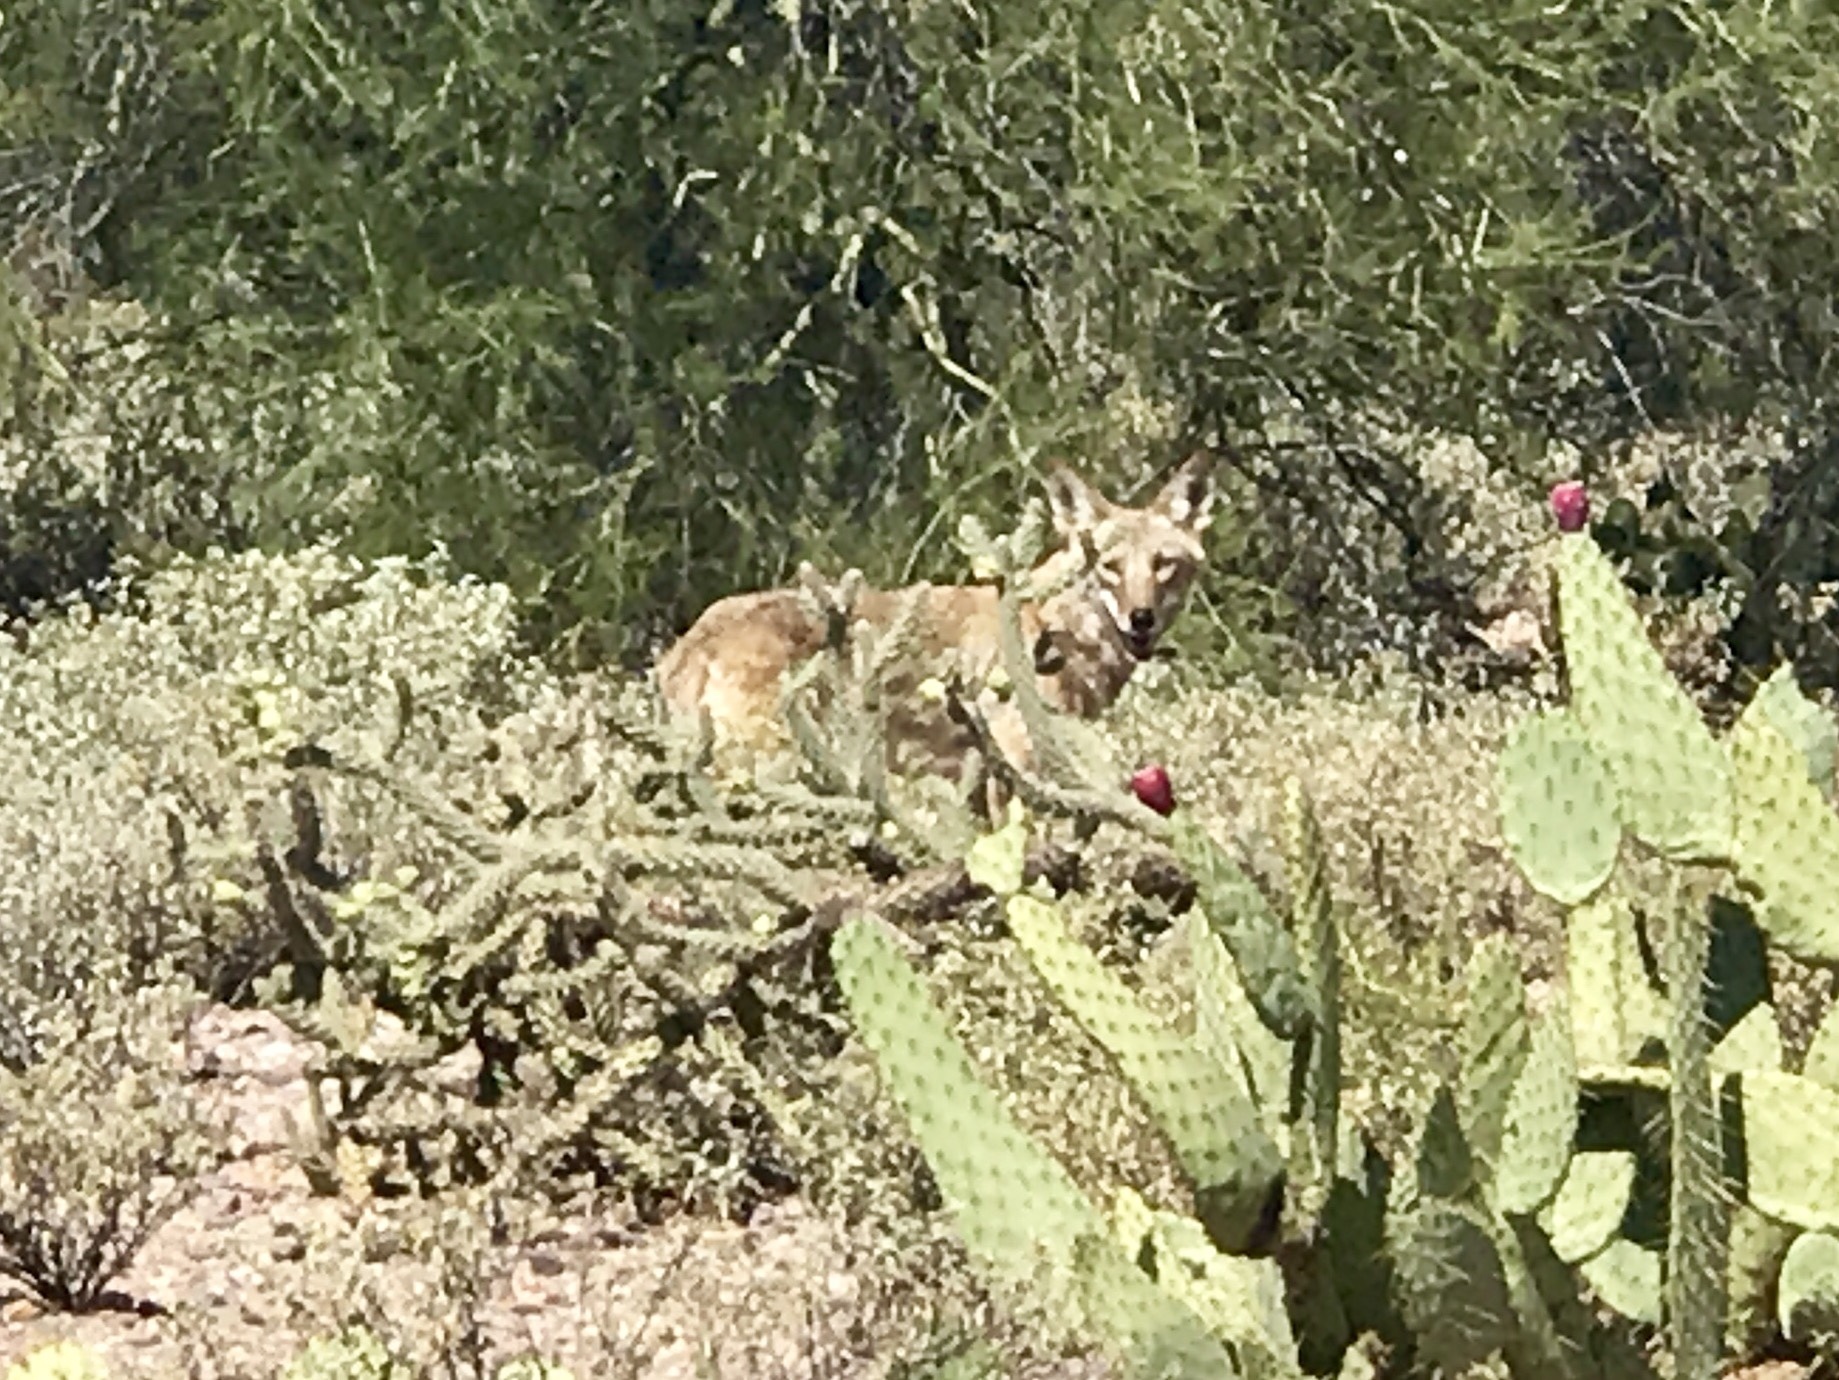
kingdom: Animalia
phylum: Chordata
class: Mammalia
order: Carnivora
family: Canidae
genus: Canis
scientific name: Canis latrans
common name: Coyote
